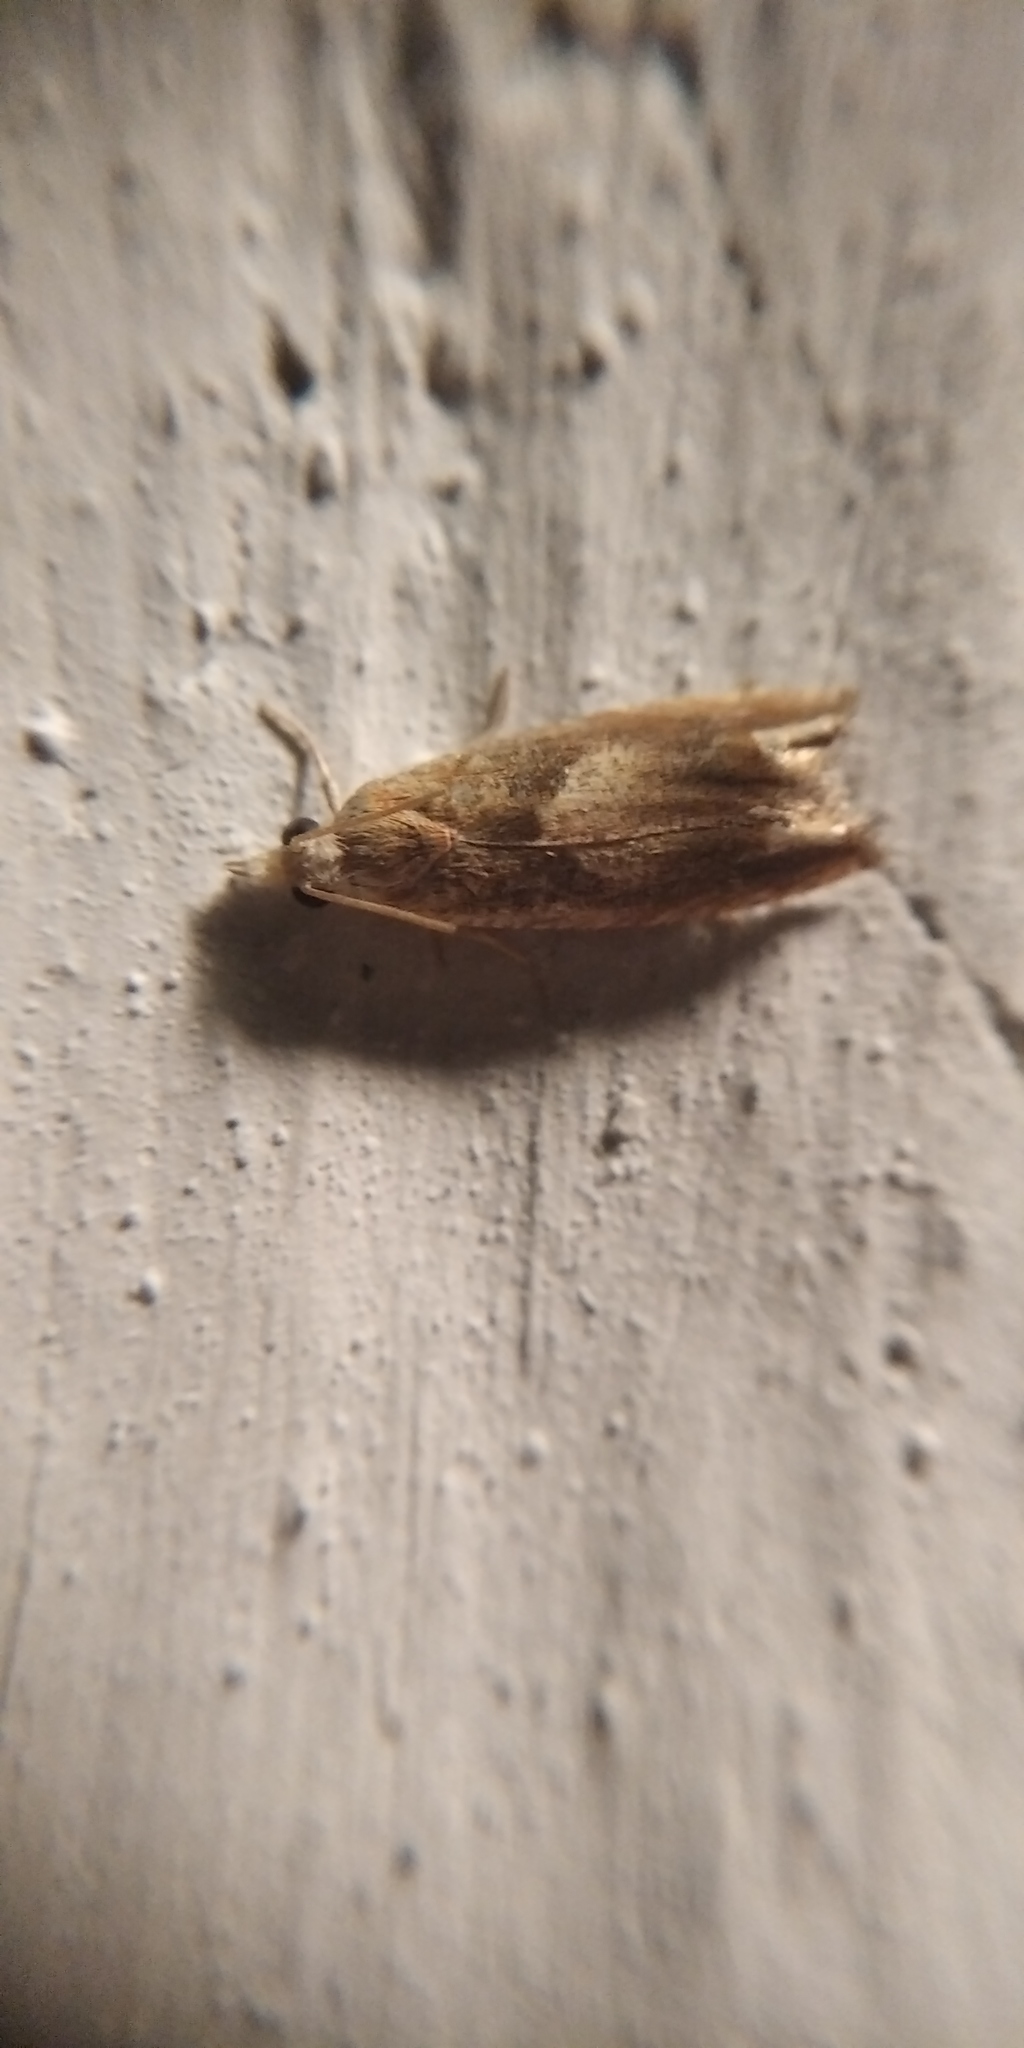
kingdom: Animalia
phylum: Arthropoda
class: Insecta
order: Lepidoptera
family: Tortricidae
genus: Eucosma
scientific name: Eucosma conterminana
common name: Pale lettuce bell
